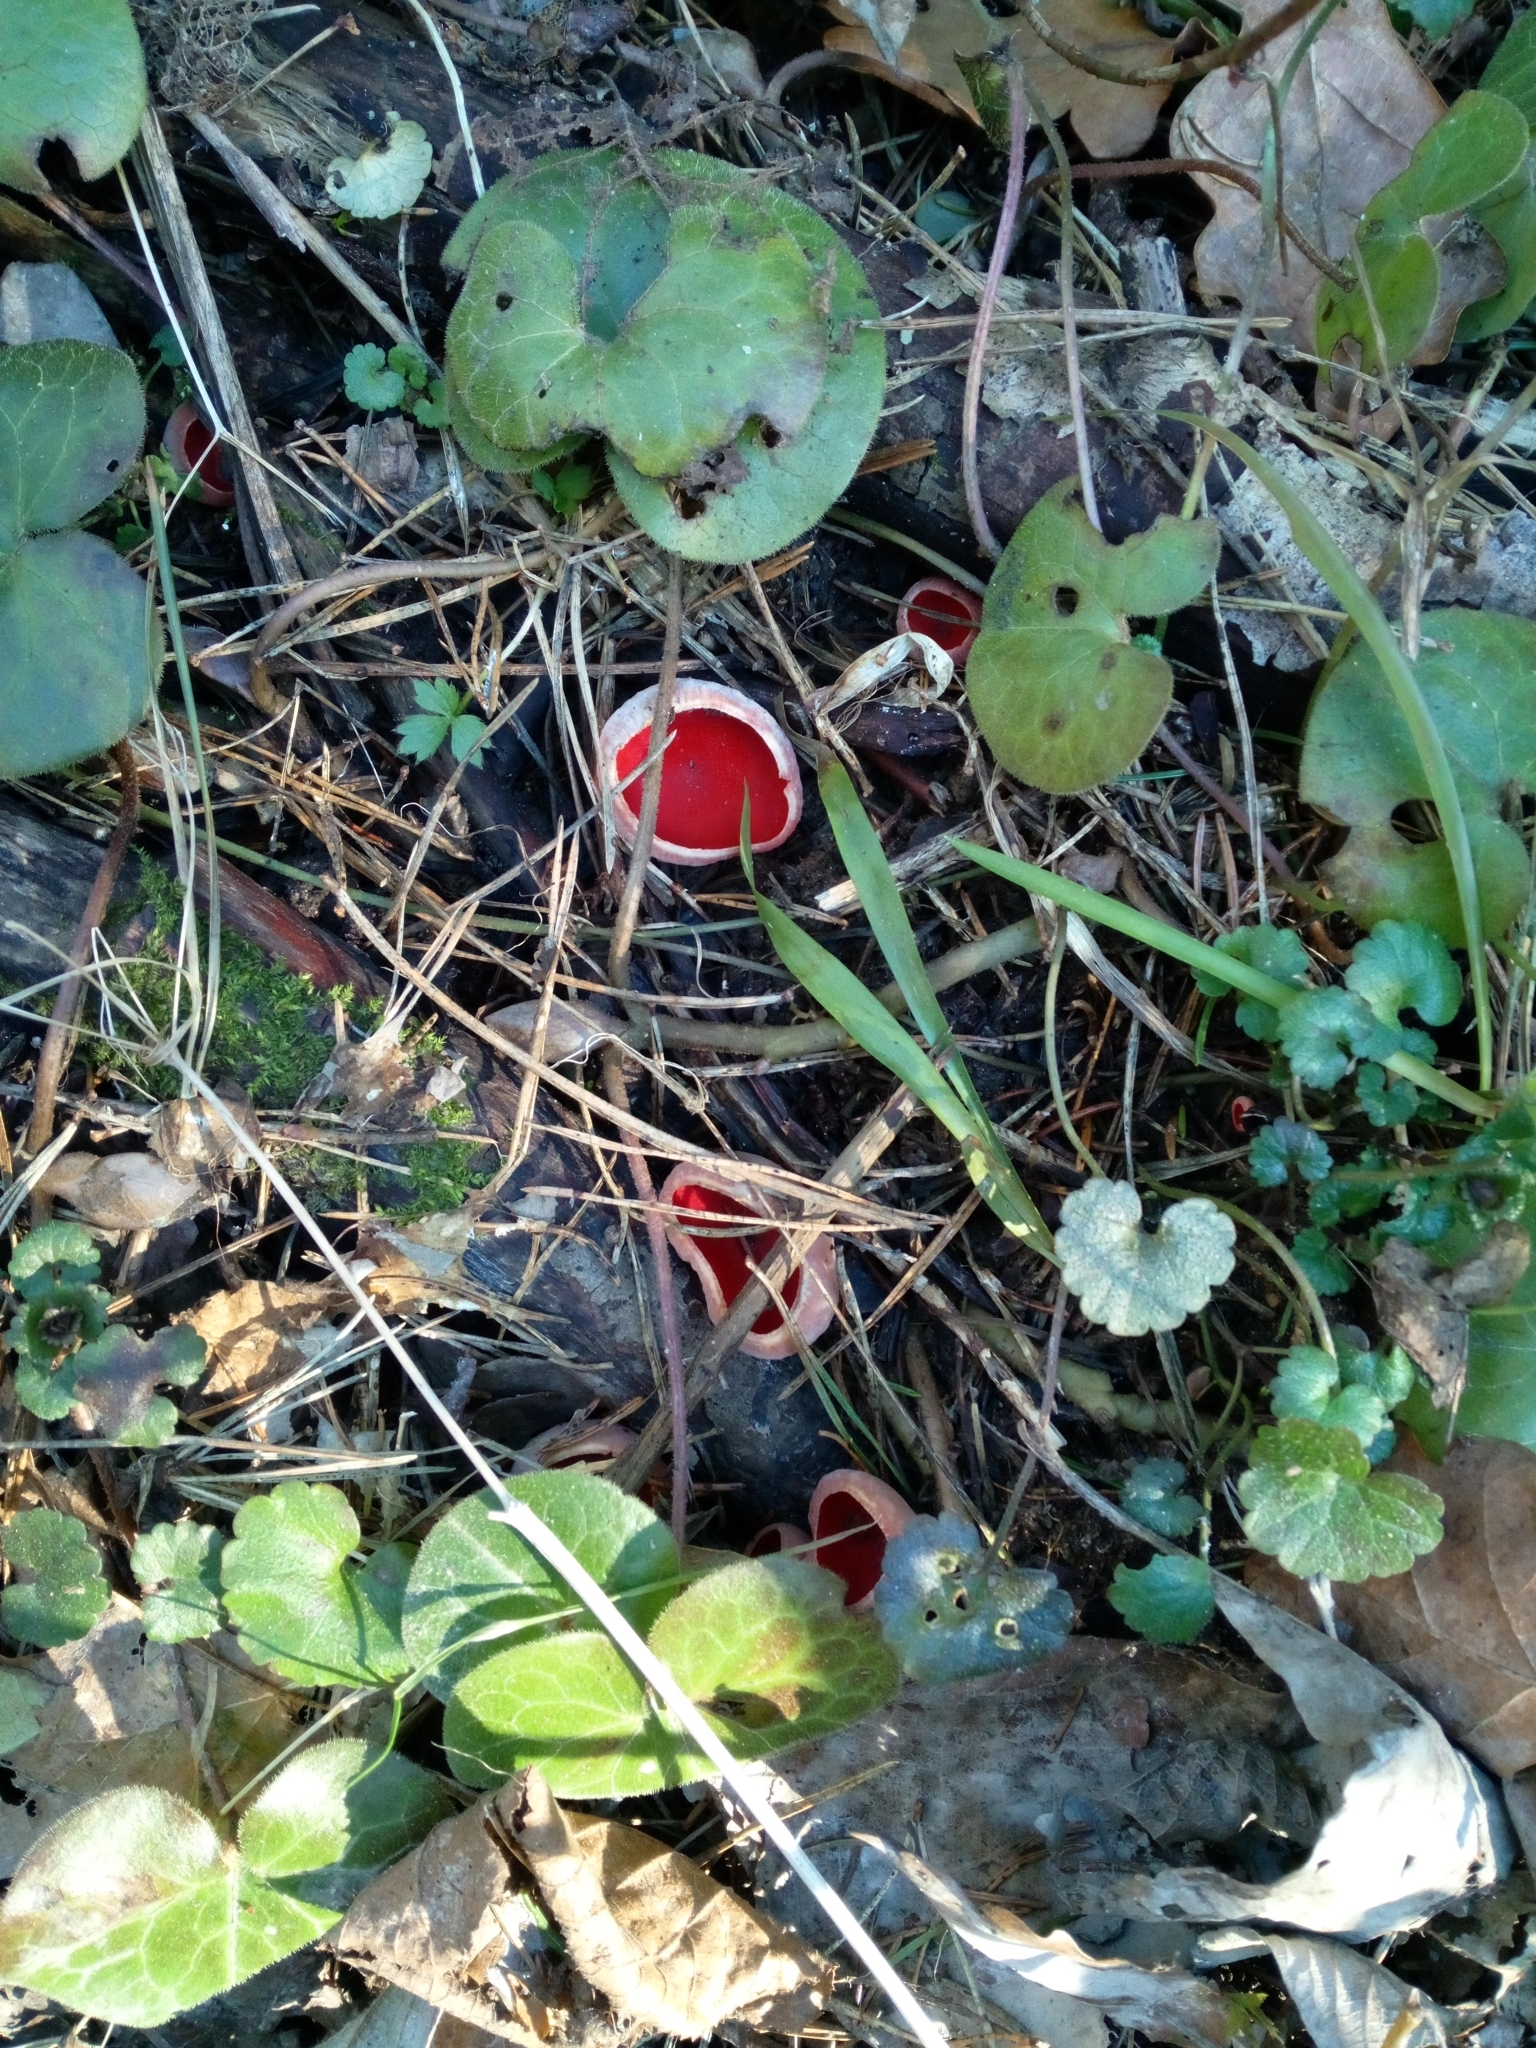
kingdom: Fungi
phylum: Ascomycota
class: Pezizomycetes
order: Pezizales
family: Sarcoscyphaceae
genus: Sarcoscypha
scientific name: Sarcoscypha
